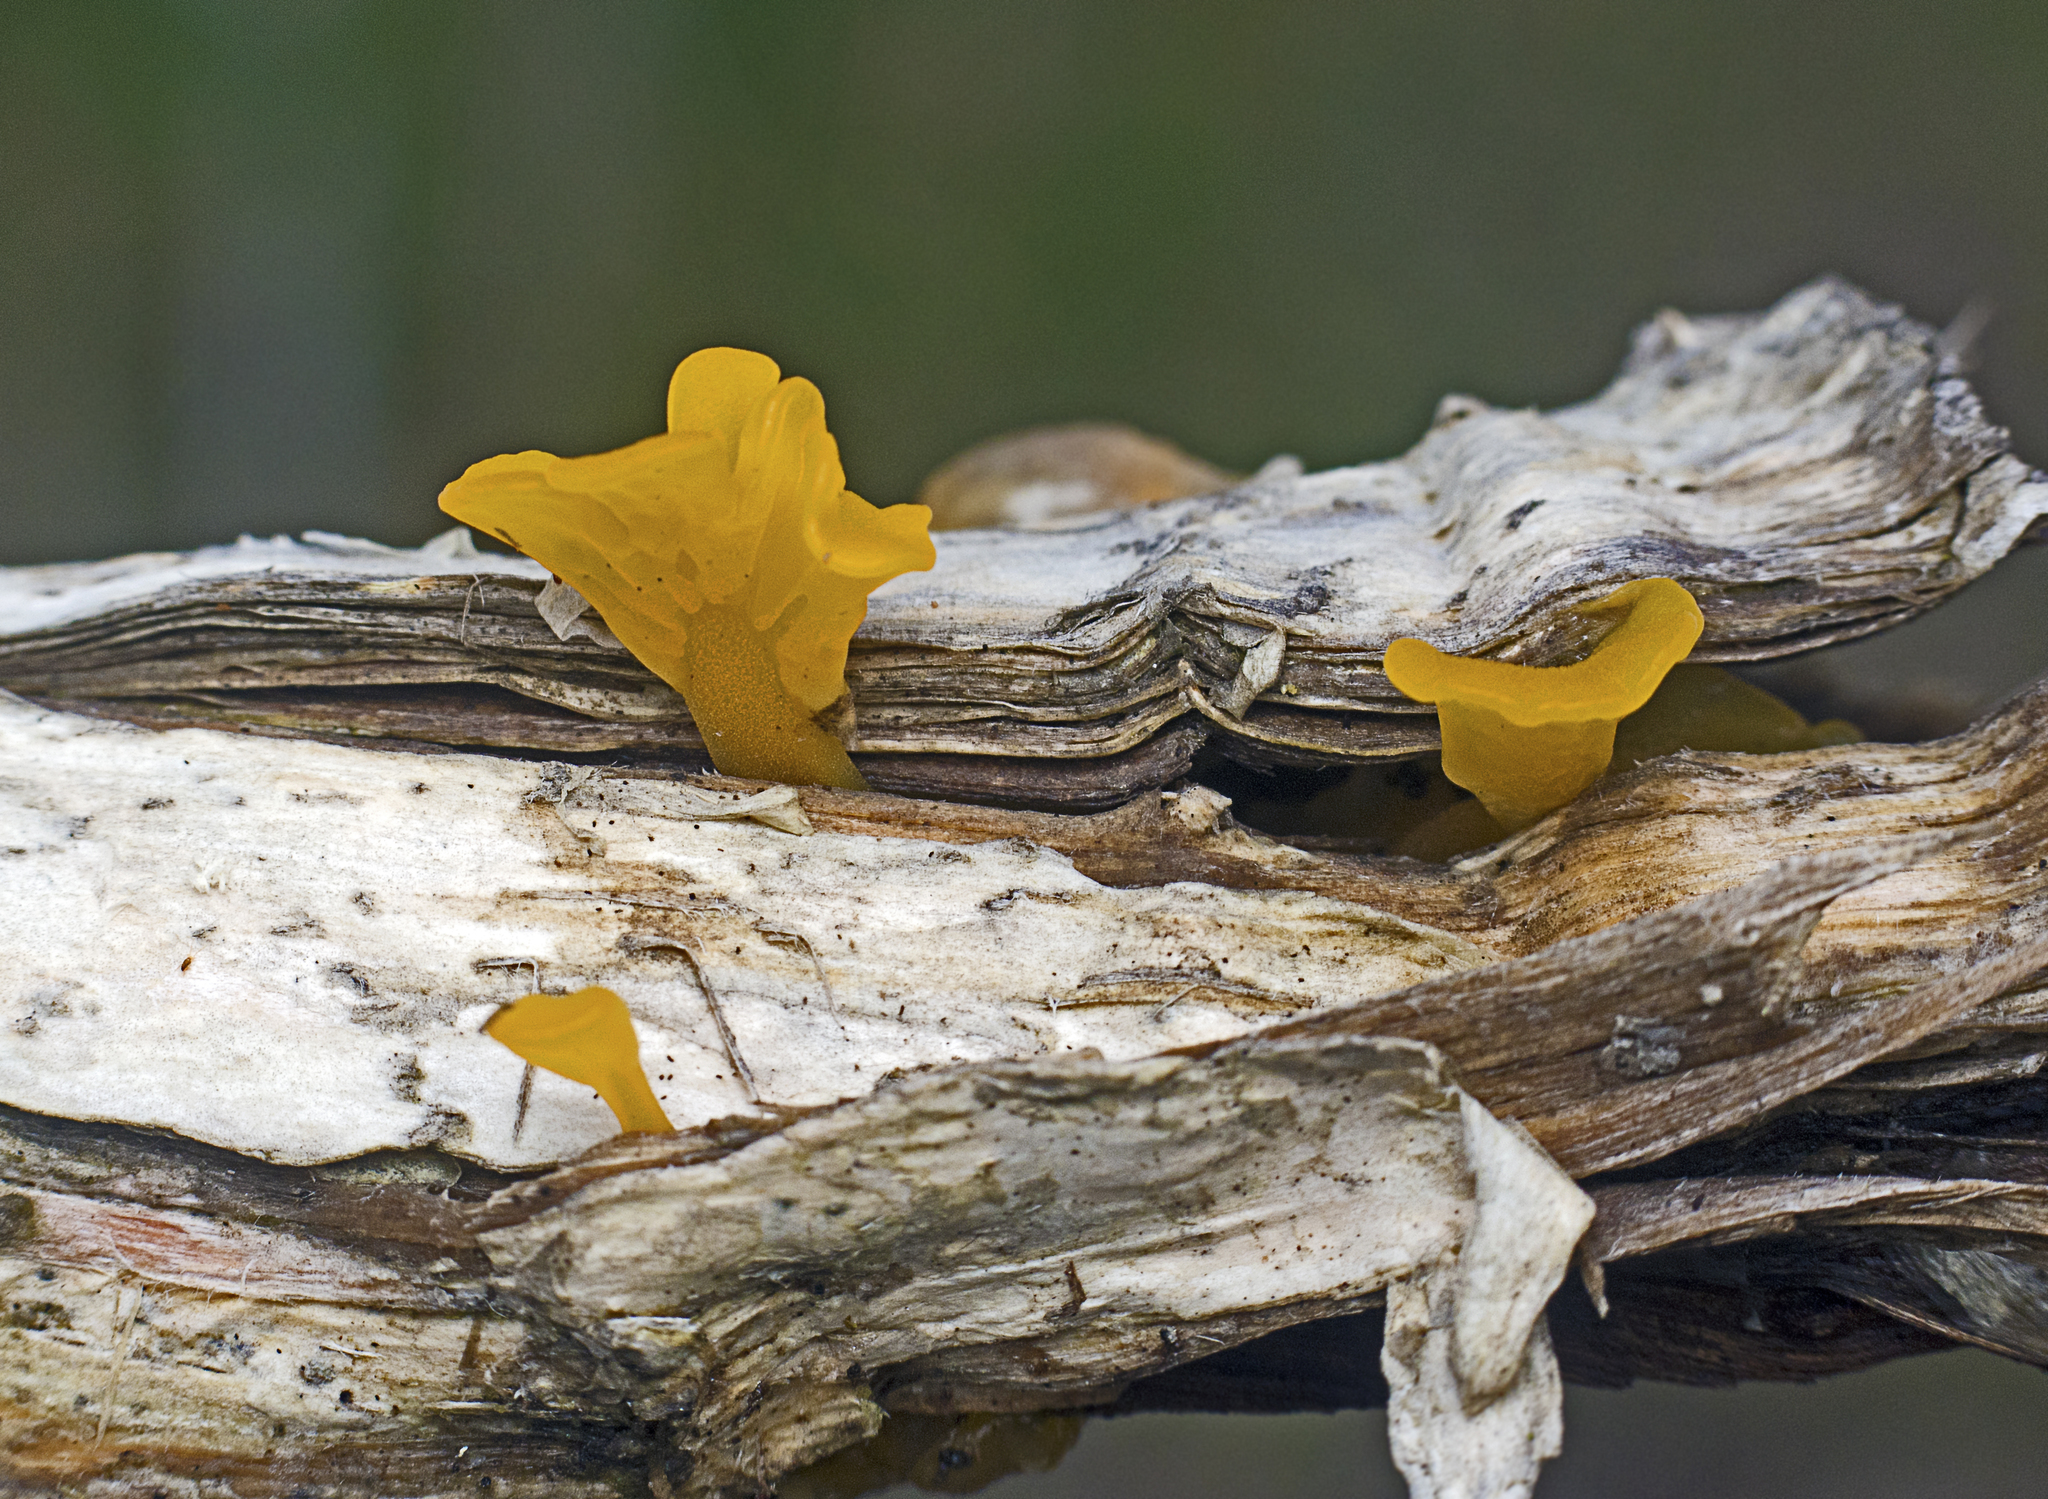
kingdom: Fungi
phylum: Basidiomycota
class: Dacrymycetes
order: Dacrymycetales
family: Dacrymycetaceae
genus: Dacrymyces
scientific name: Dacrymyces spathularius
